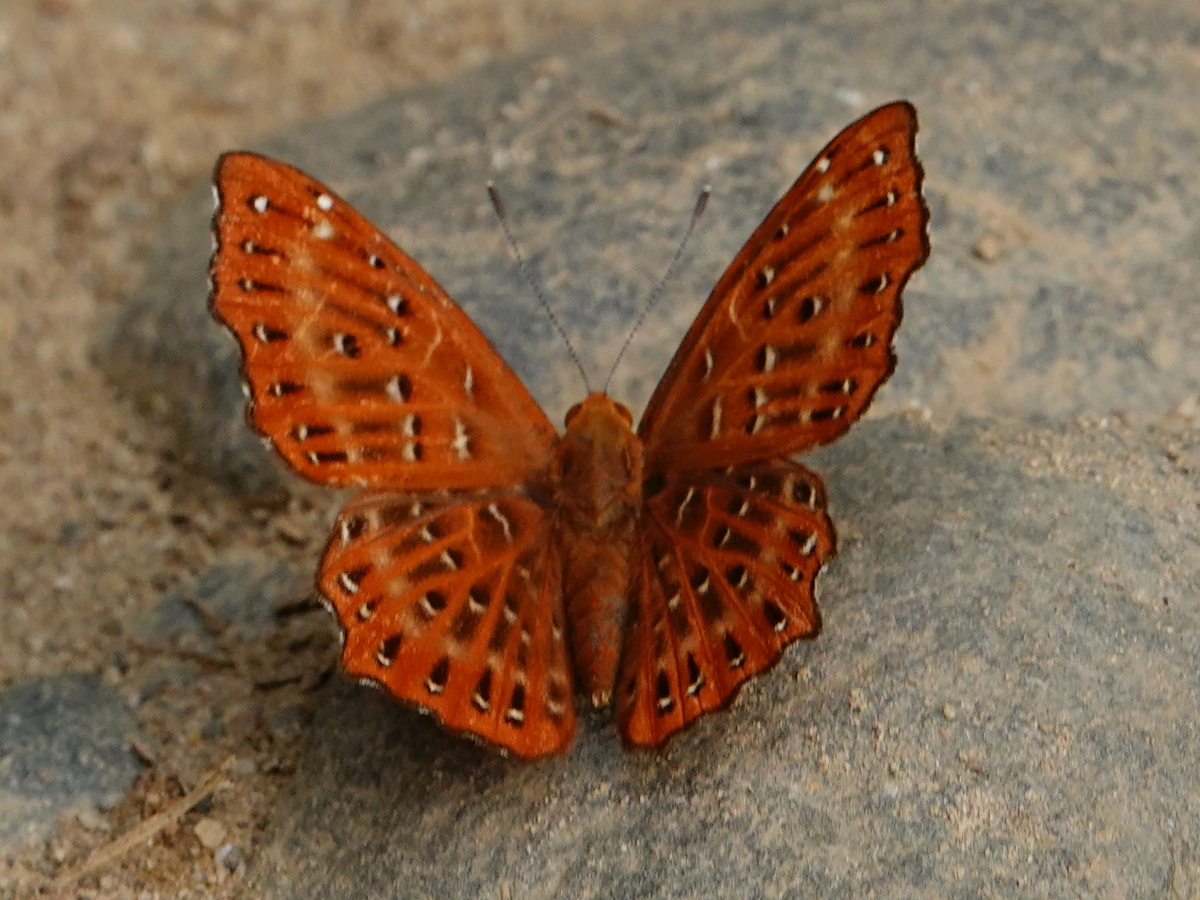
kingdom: Animalia
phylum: Arthropoda
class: Insecta
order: Lepidoptera
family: Riodinidae
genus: Zemeros
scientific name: Zemeros flegyas
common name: Punchinello
